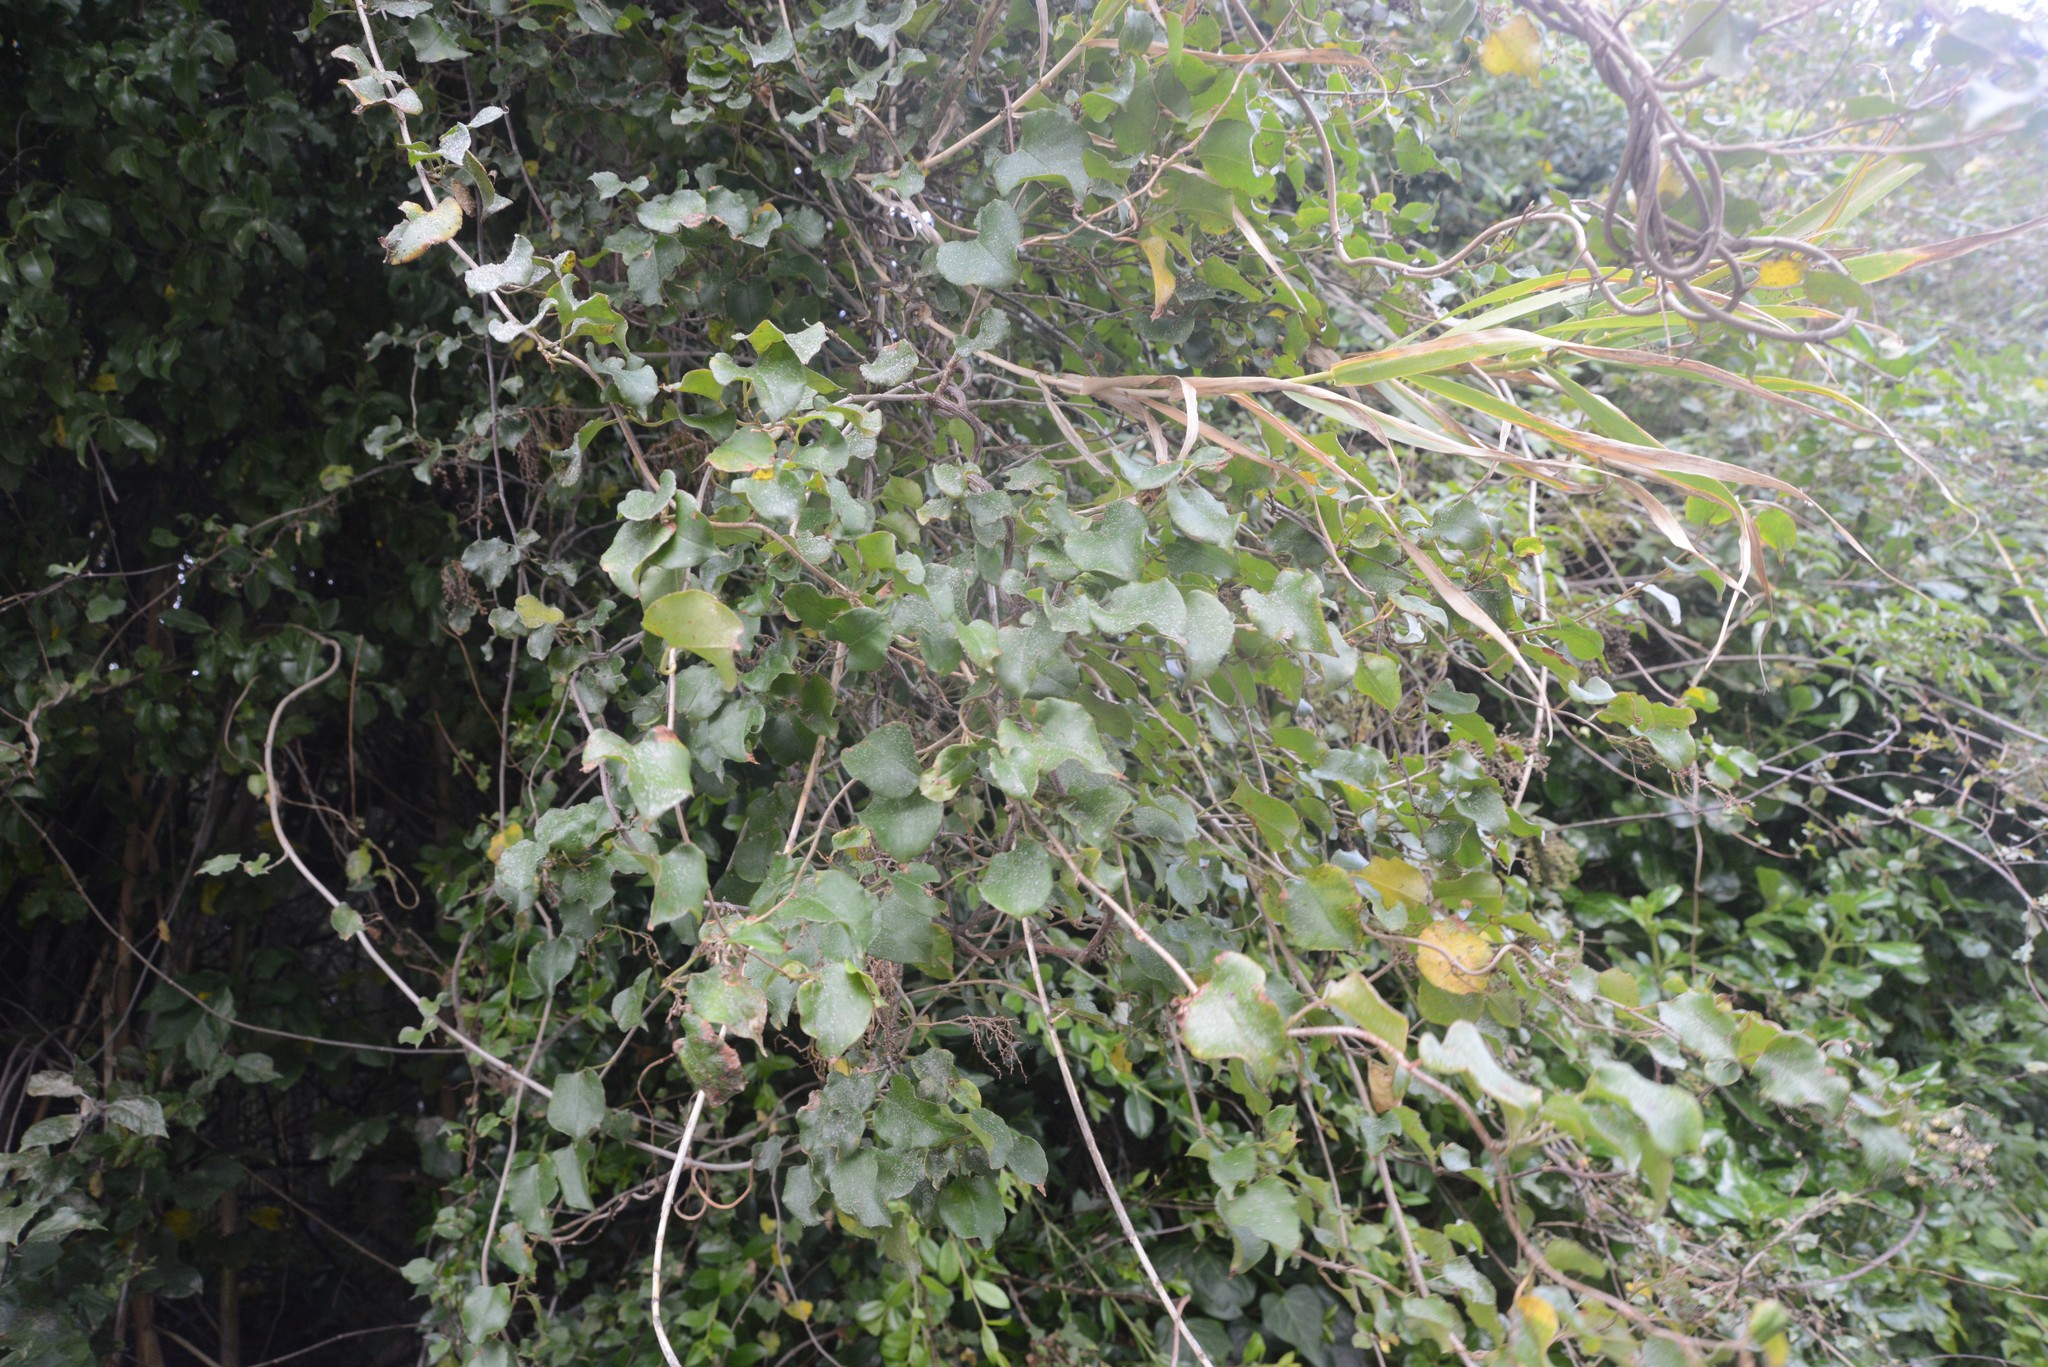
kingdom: Plantae
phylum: Tracheophyta
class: Magnoliopsida
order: Caryophyllales
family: Polygonaceae
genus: Muehlenbeckia
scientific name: Muehlenbeckia australis
